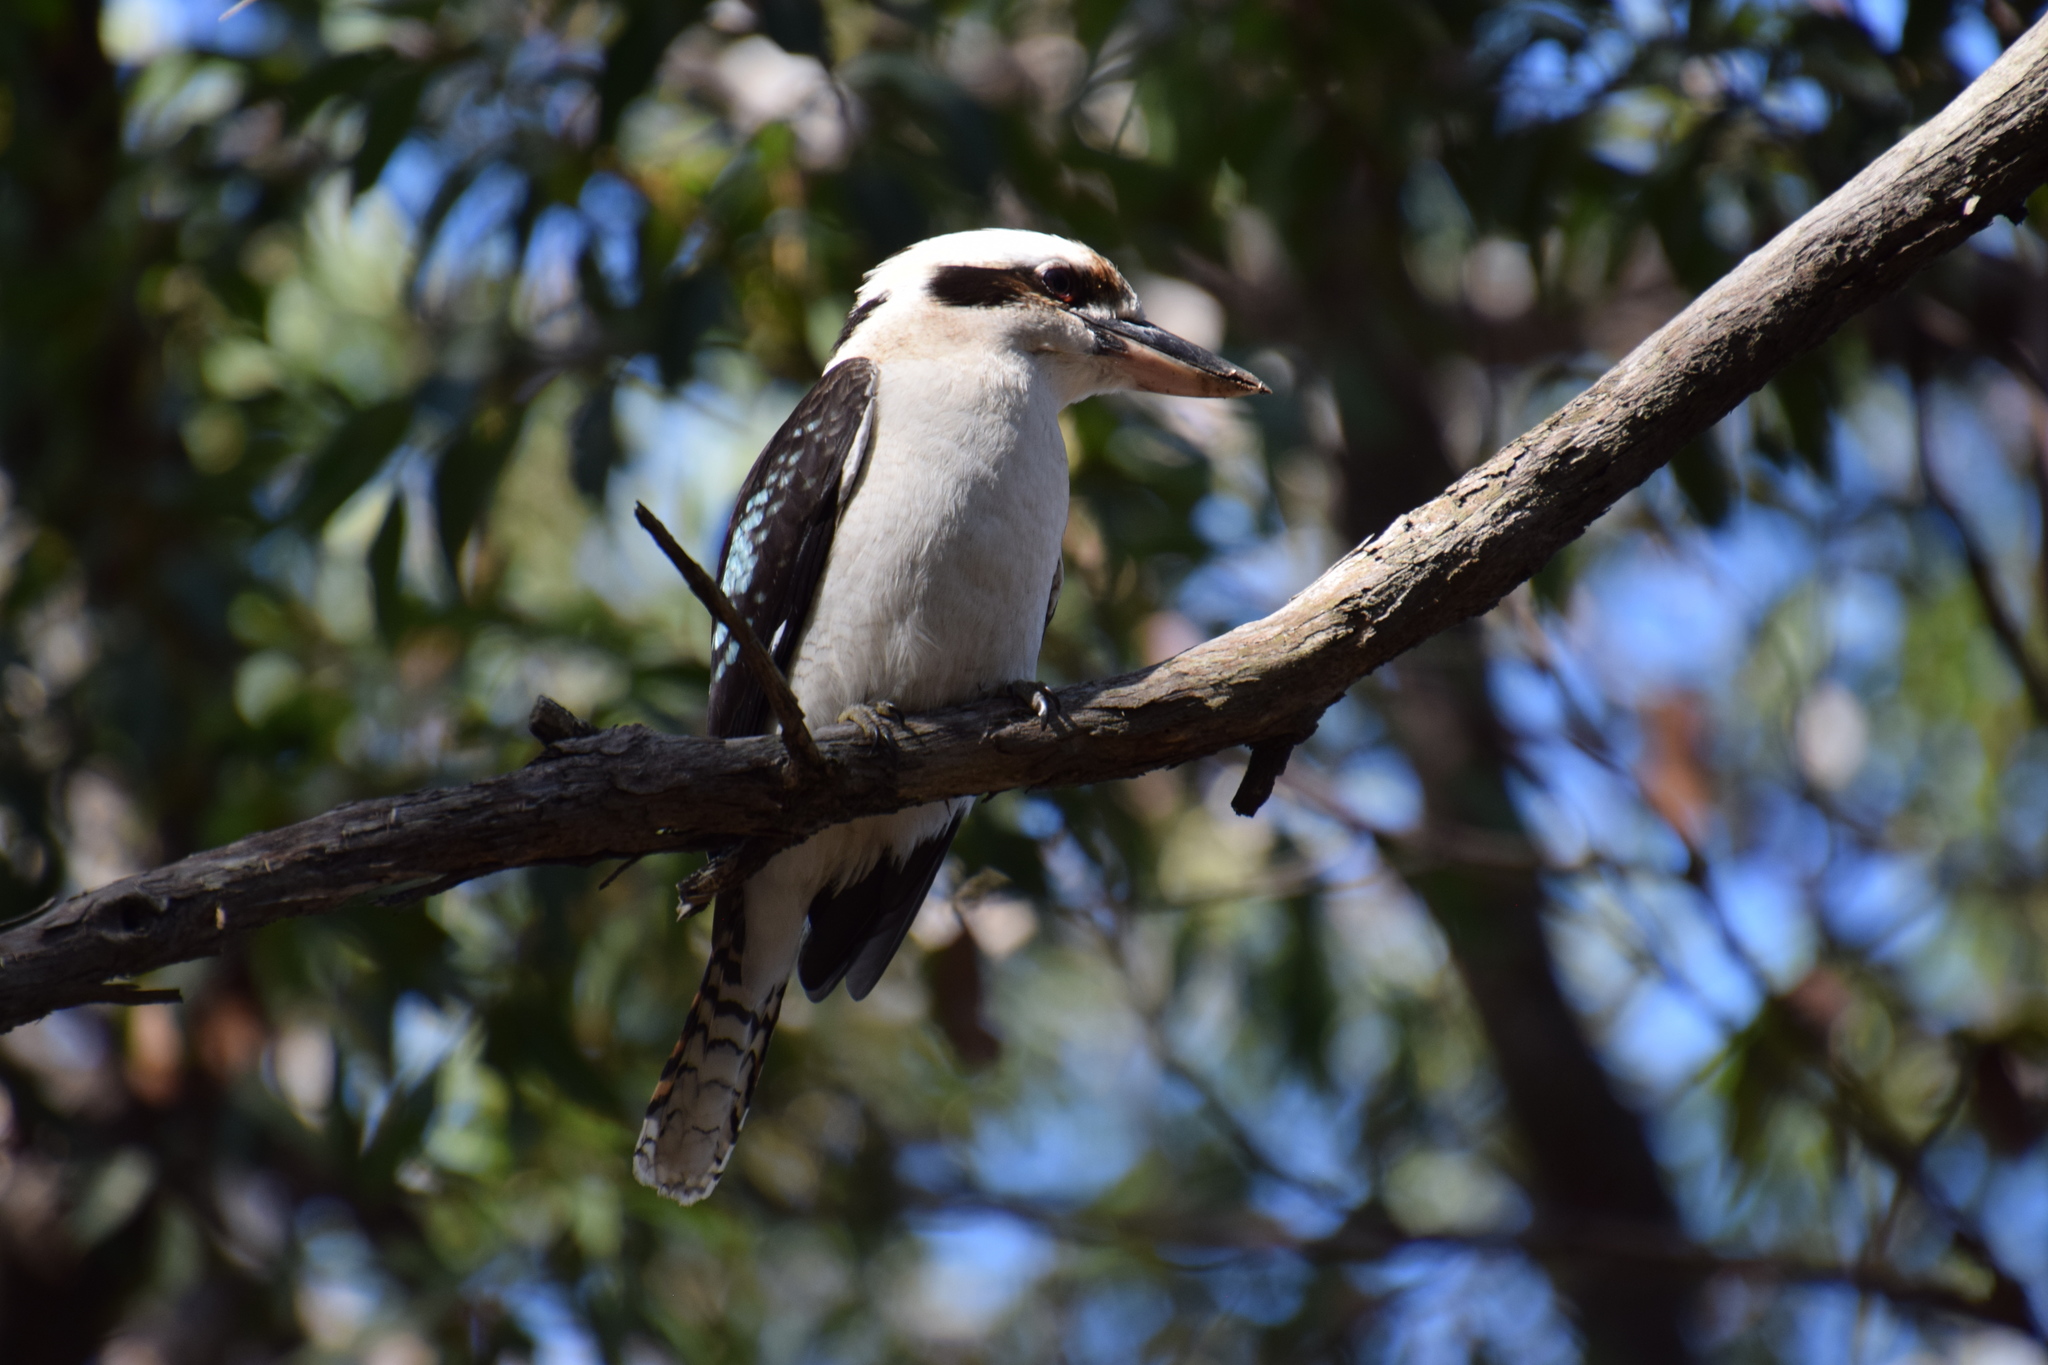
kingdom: Animalia
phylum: Chordata
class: Aves
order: Coraciiformes
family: Alcedinidae
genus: Dacelo
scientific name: Dacelo novaeguineae
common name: Laughing kookaburra
